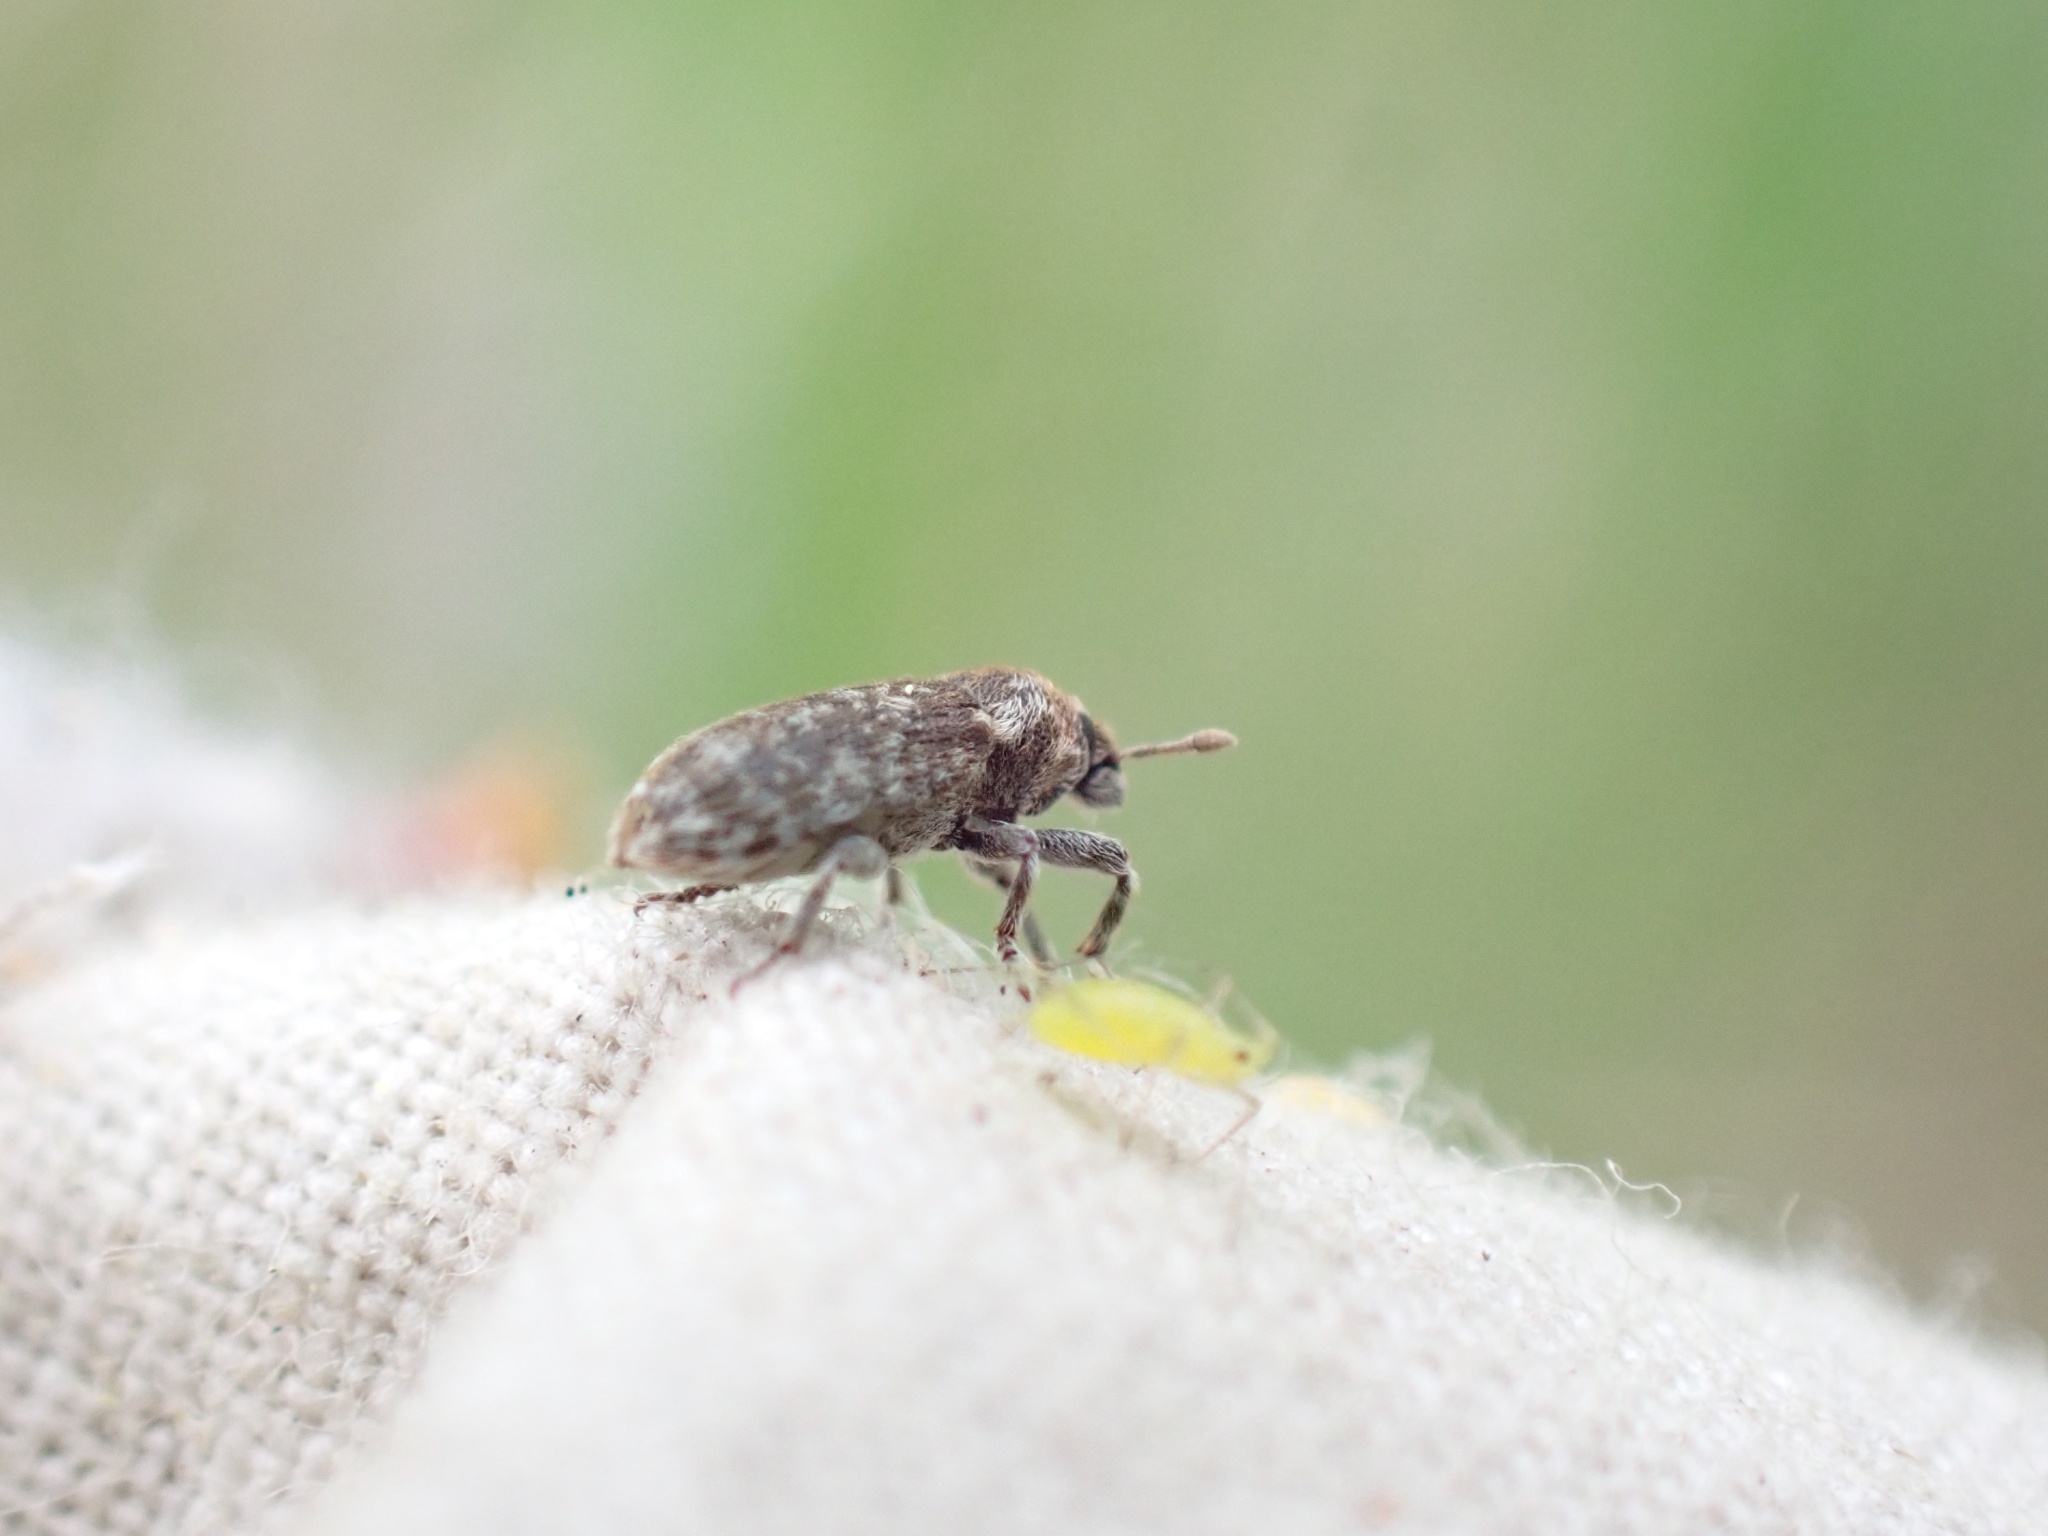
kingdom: Animalia
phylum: Arthropoda
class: Insecta
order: Coleoptera
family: Curculionidae
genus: Bangasternus
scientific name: Bangasternus fausti
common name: Broad-nosed knapweed seedhead weevil
